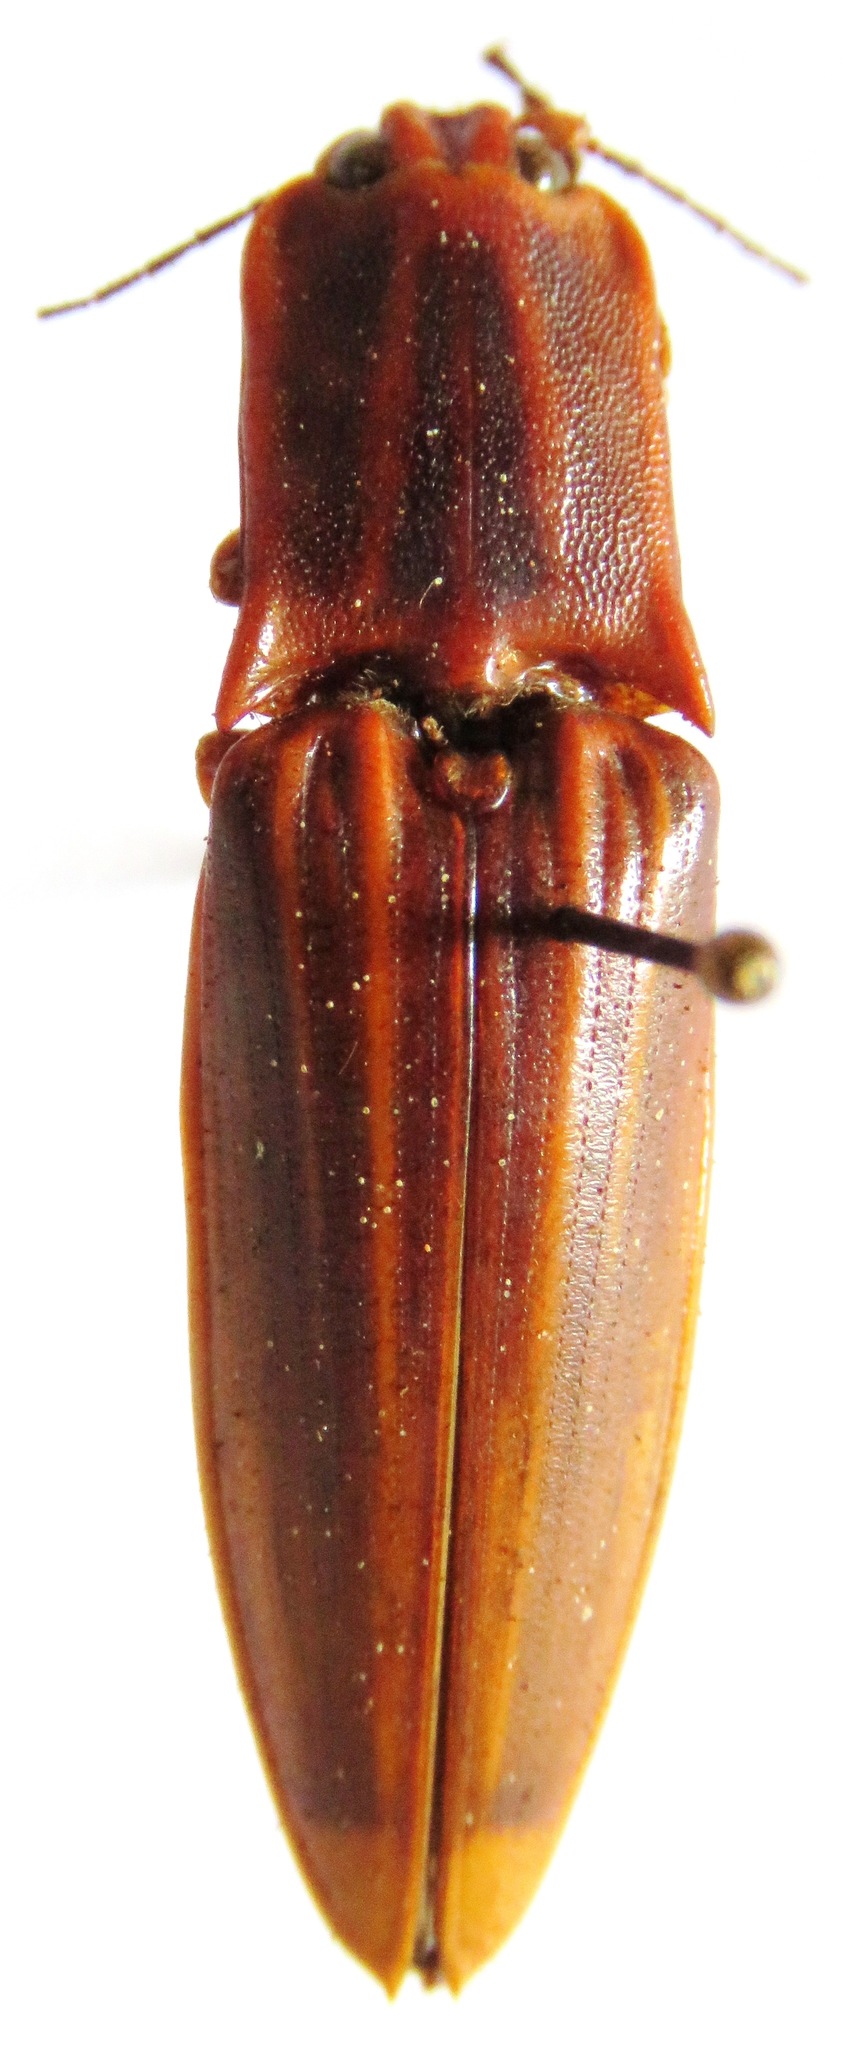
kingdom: Animalia
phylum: Arthropoda
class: Insecta
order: Coleoptera
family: Elateridae
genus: Semiotus
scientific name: Semiotus ligneus
